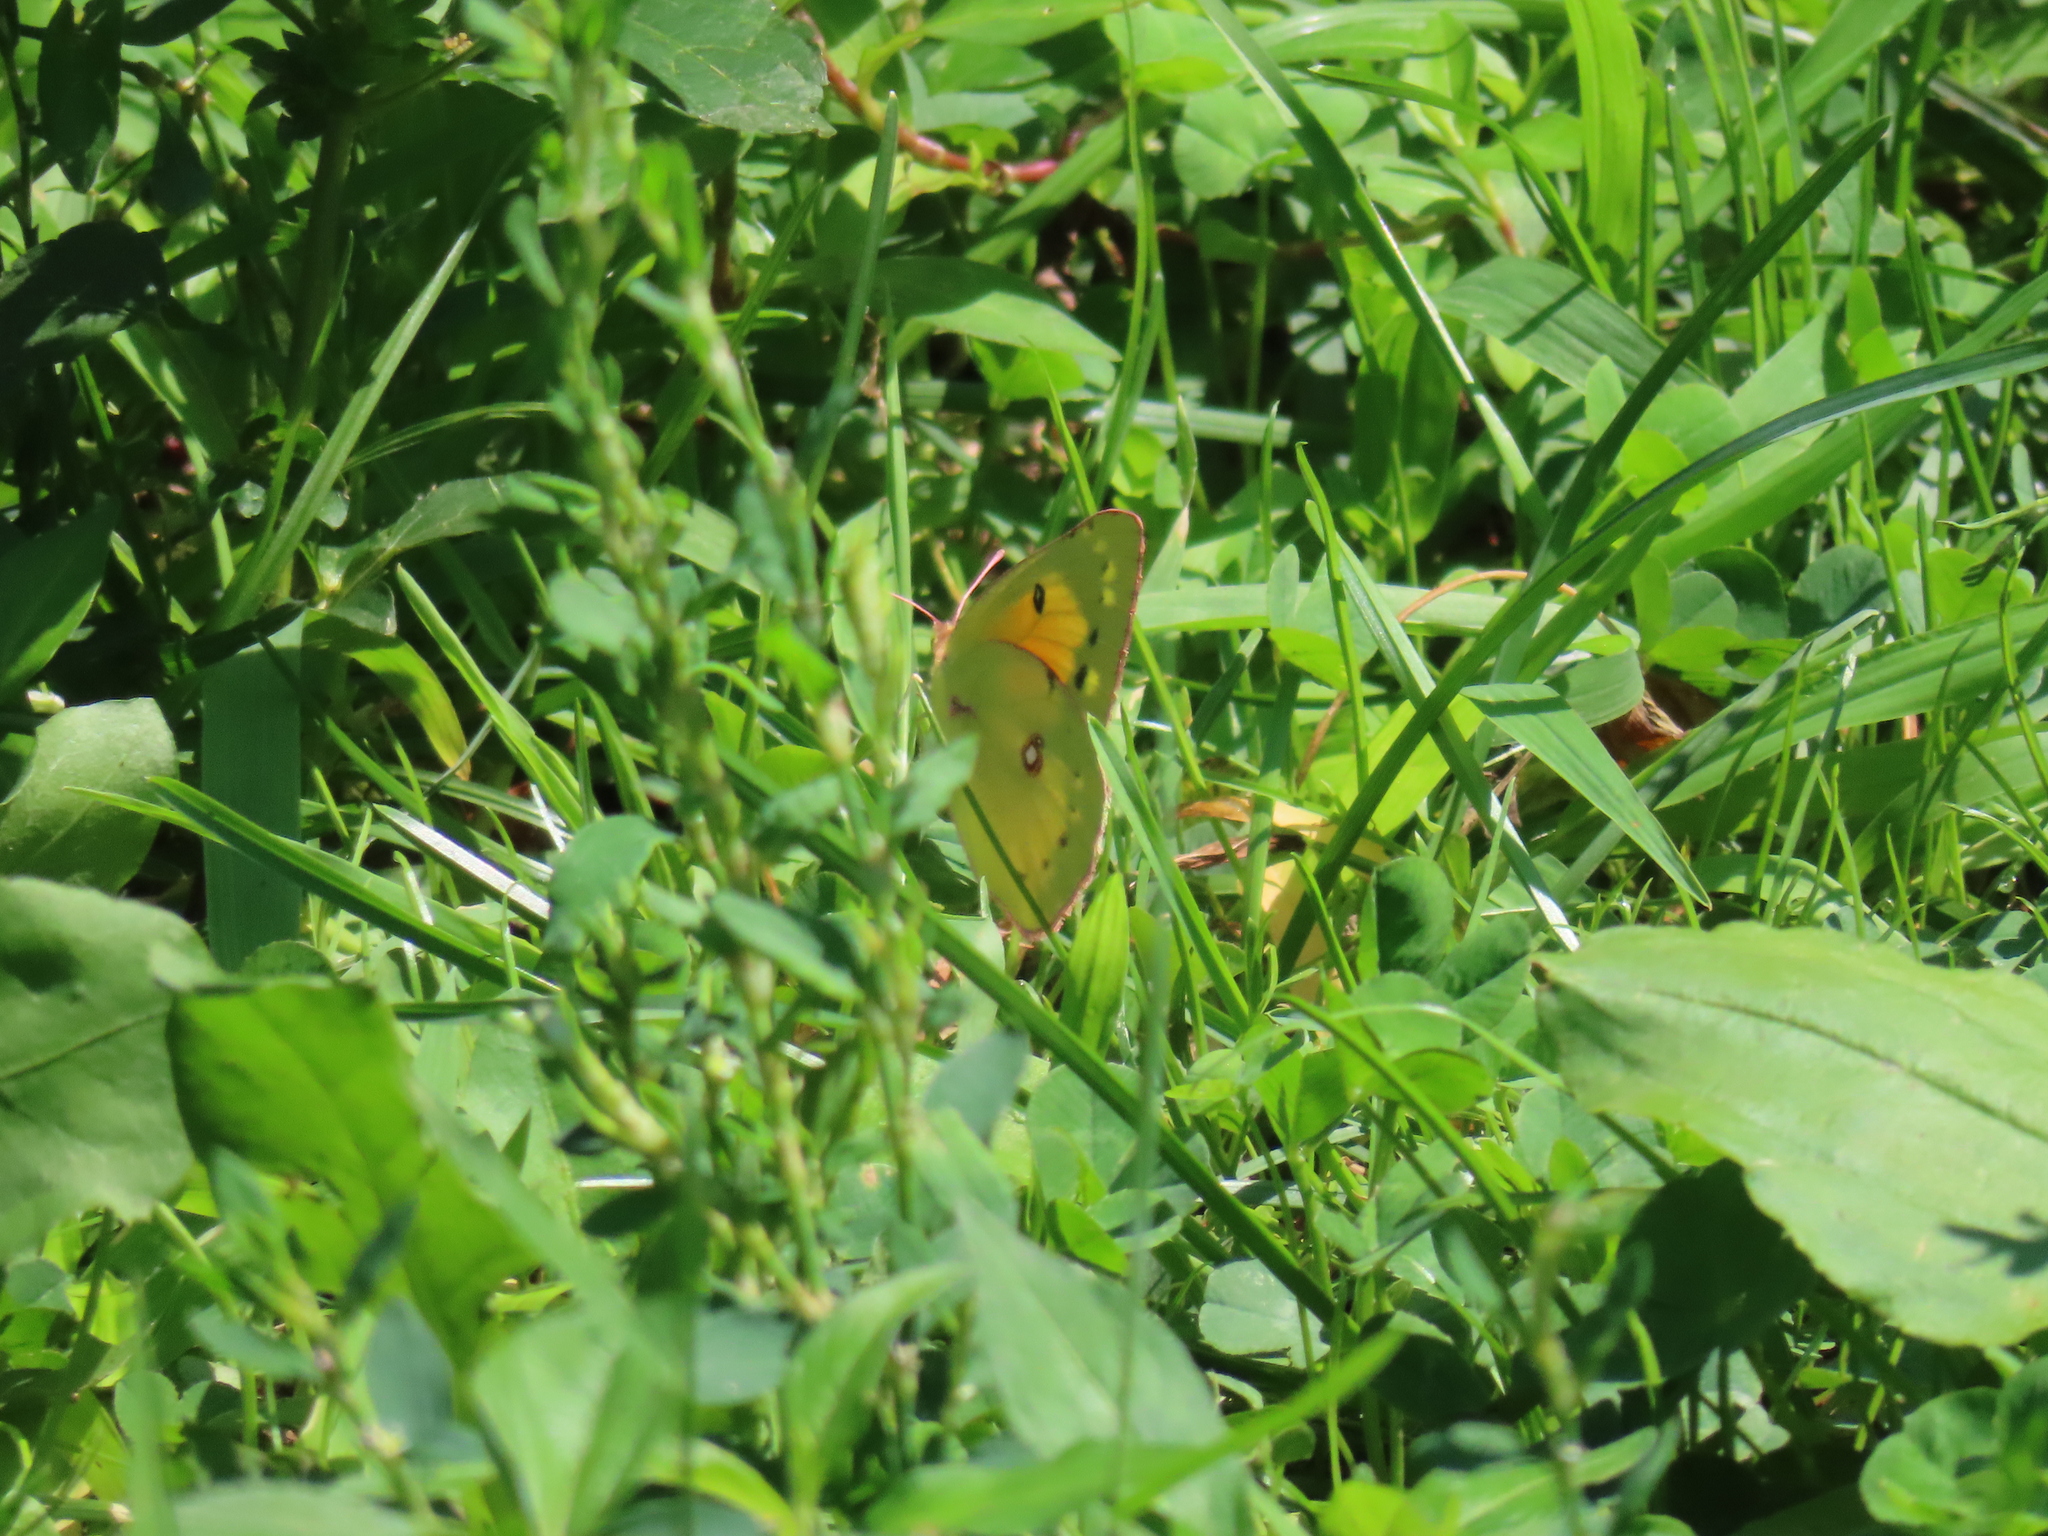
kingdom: Animalia
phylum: Arthropoda
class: Insecta
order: Lepidoptera
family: Pieridae
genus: Colias
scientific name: Colias eurytheme
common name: Alfalfa butterfly
